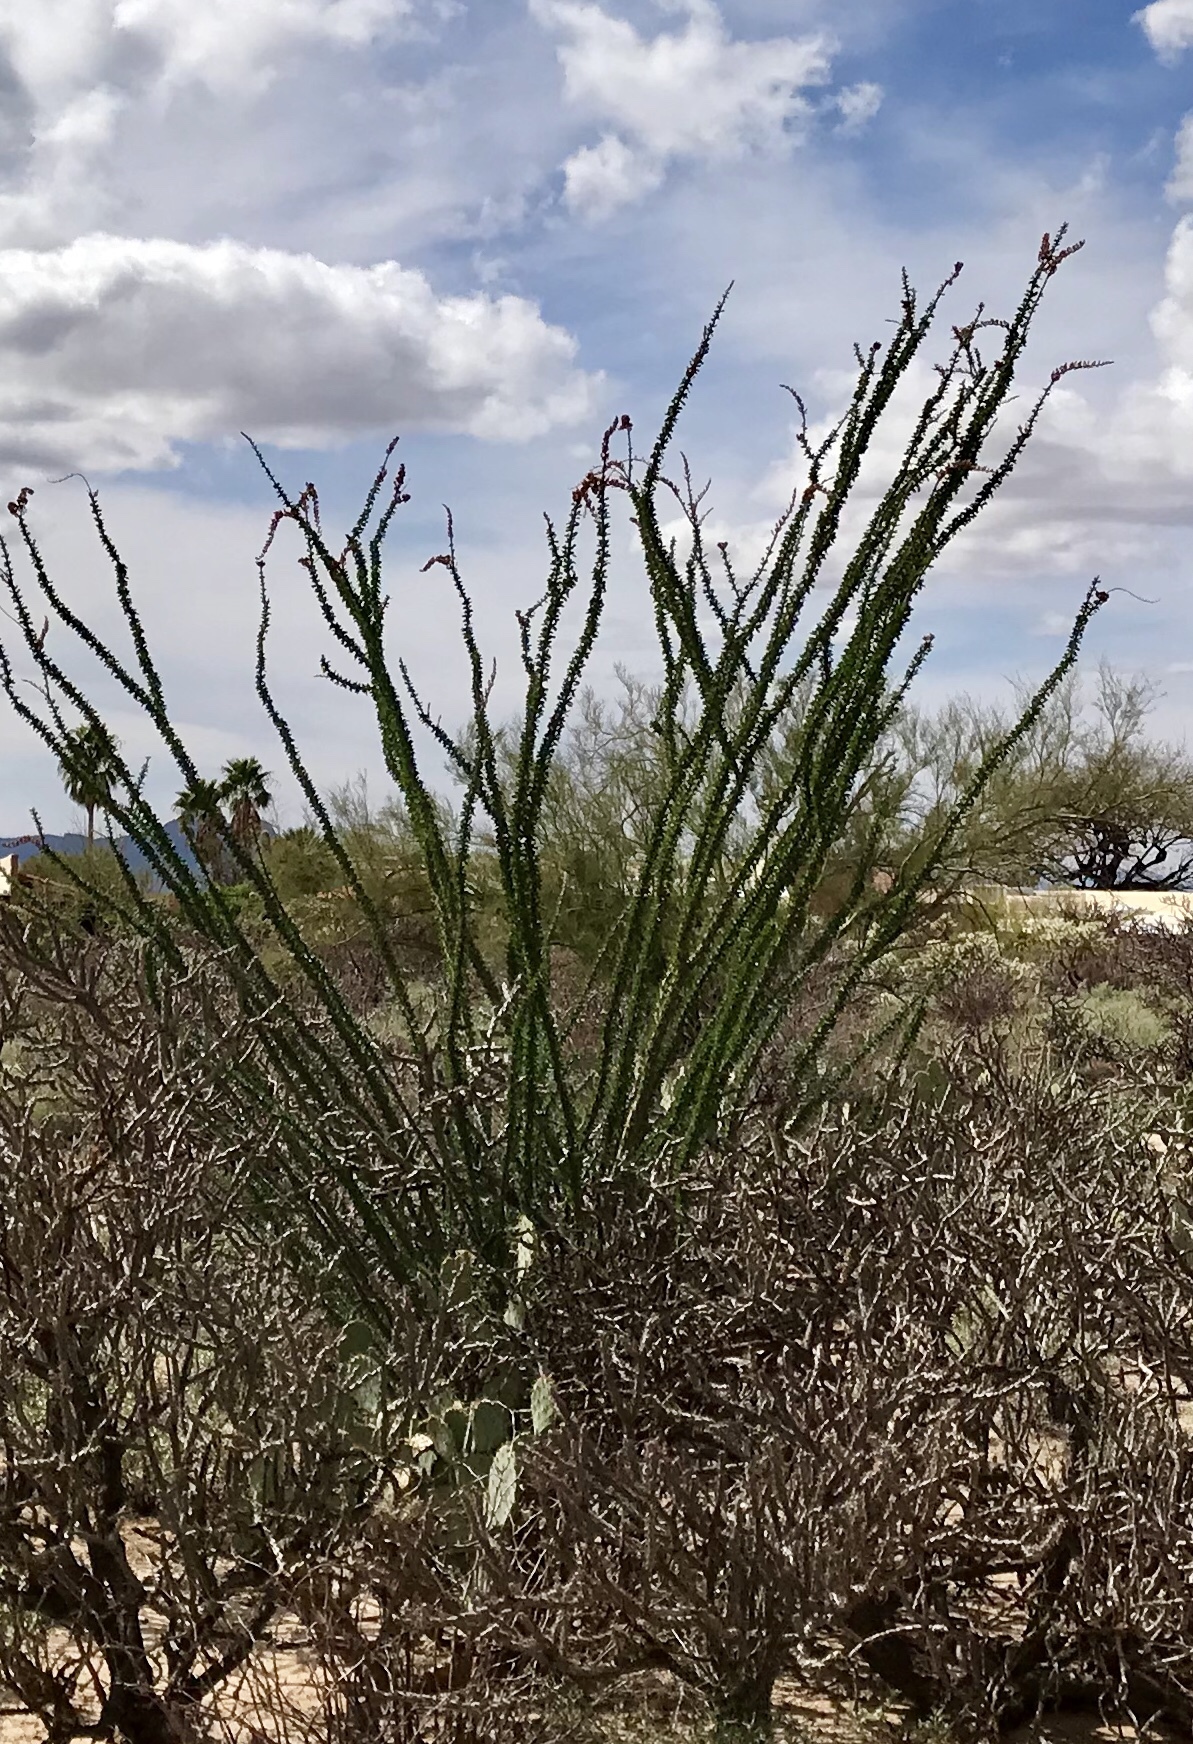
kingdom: Plantae
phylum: Tracheophyta
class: Magnoliopsida
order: Ericales
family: Fouquieriaceae
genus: Fouquieria
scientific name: Fouquieria splendens
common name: Vine-cactus
